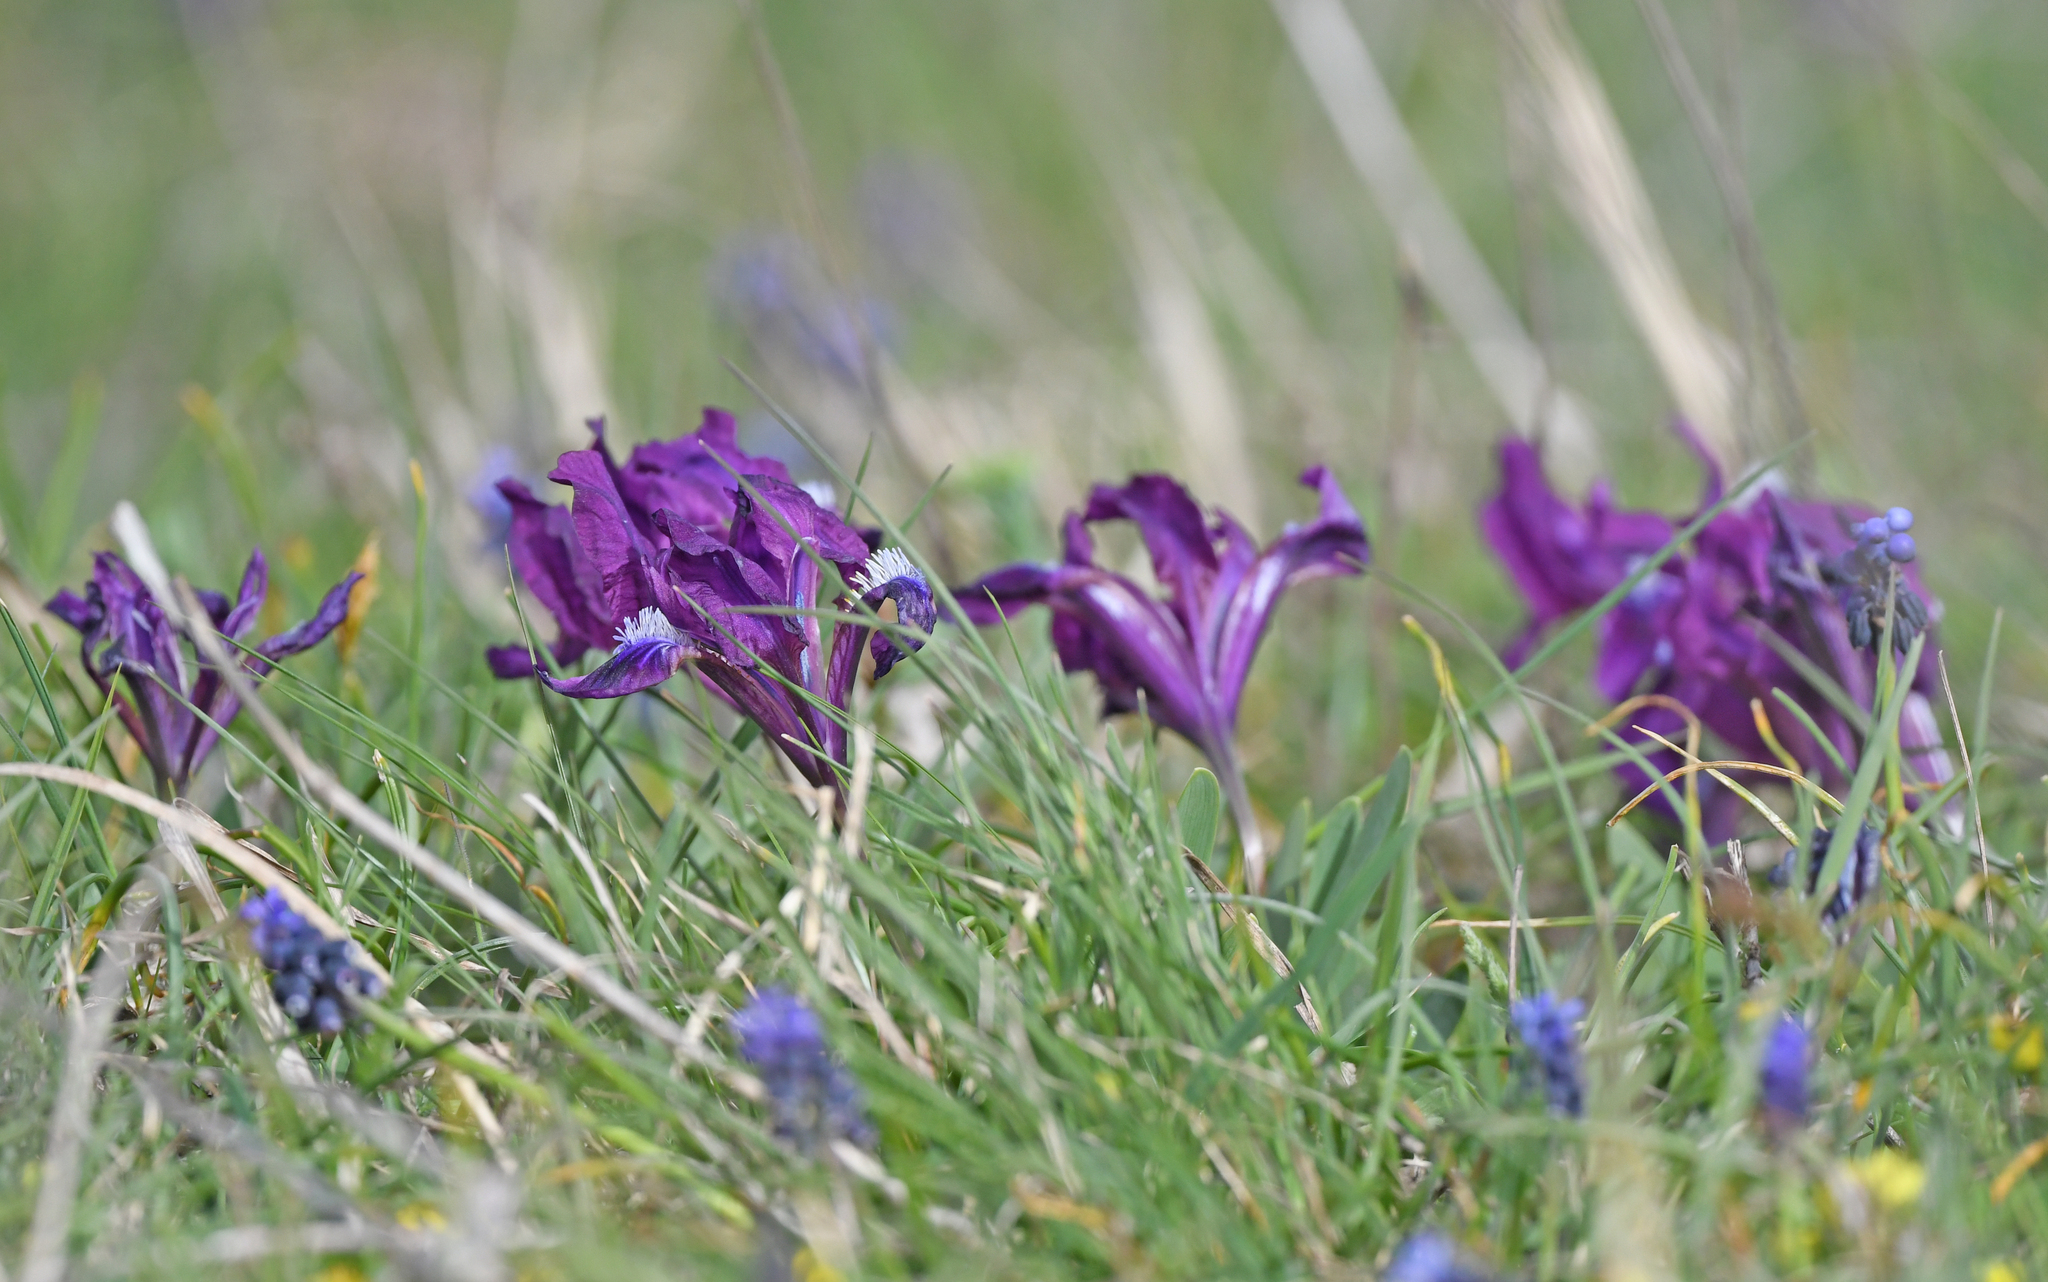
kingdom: Plantae
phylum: Tracheophyta
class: Liliopsida
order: Asparagales
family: Iridaceae
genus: Iris
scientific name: Iris pumila
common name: Dwarf iris
